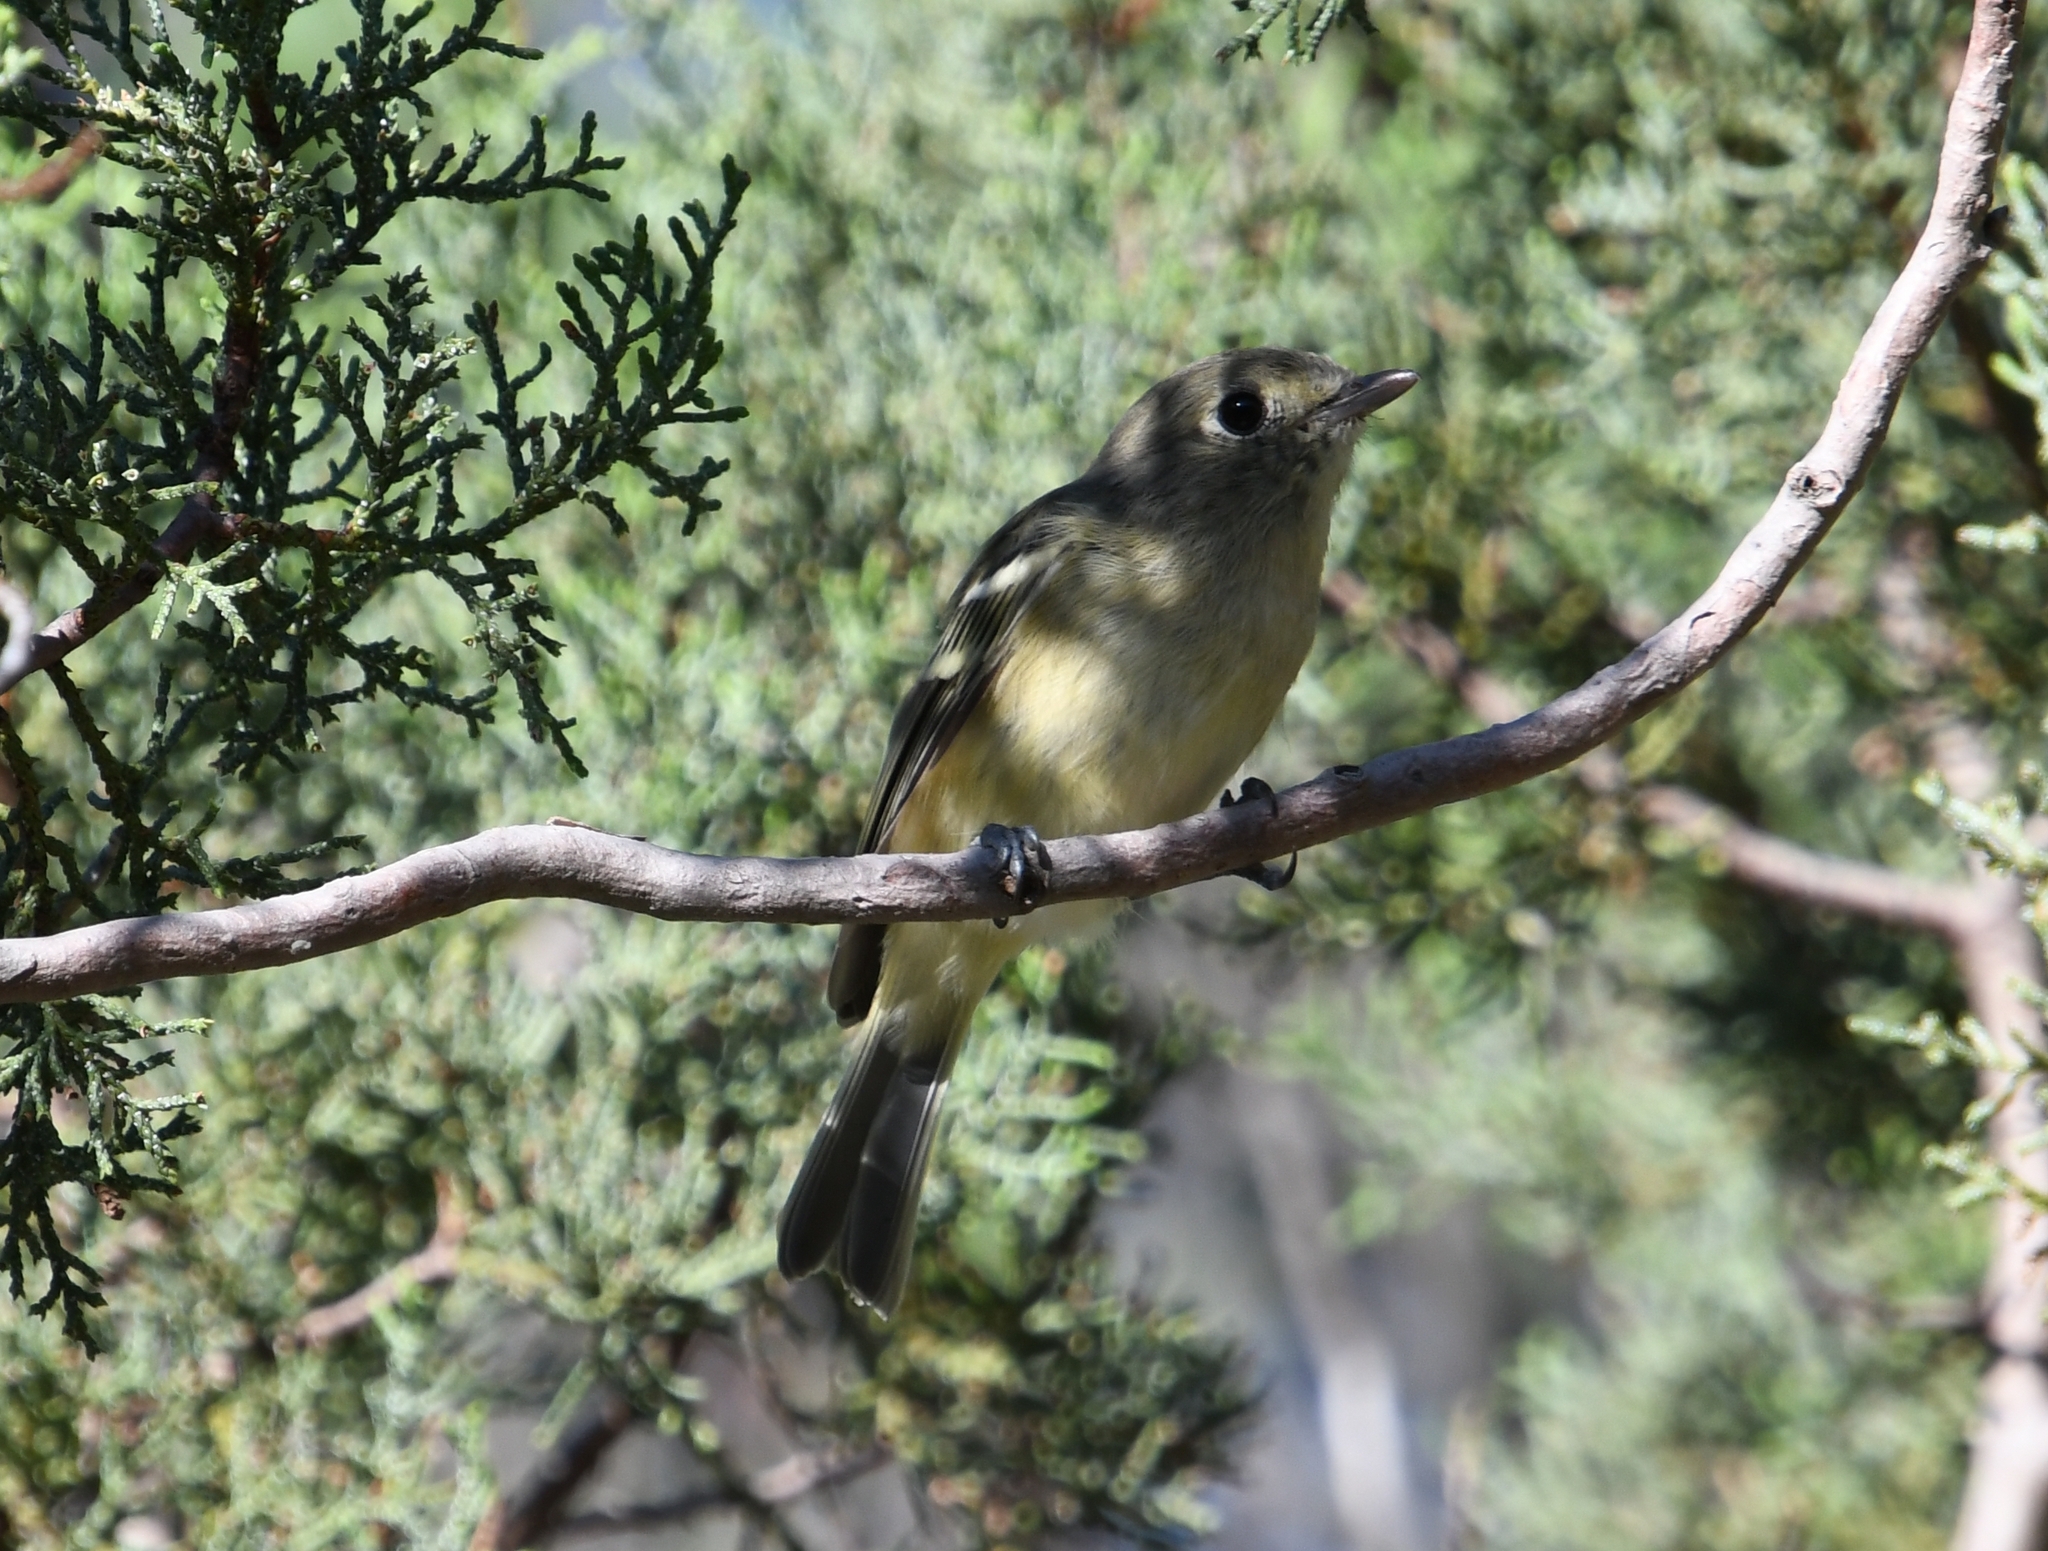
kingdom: Animalia
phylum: Chordata
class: Aves
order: Passeriformes
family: Vireonidae
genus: Vireo
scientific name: Vireo huttoni
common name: Hutton's vireo
